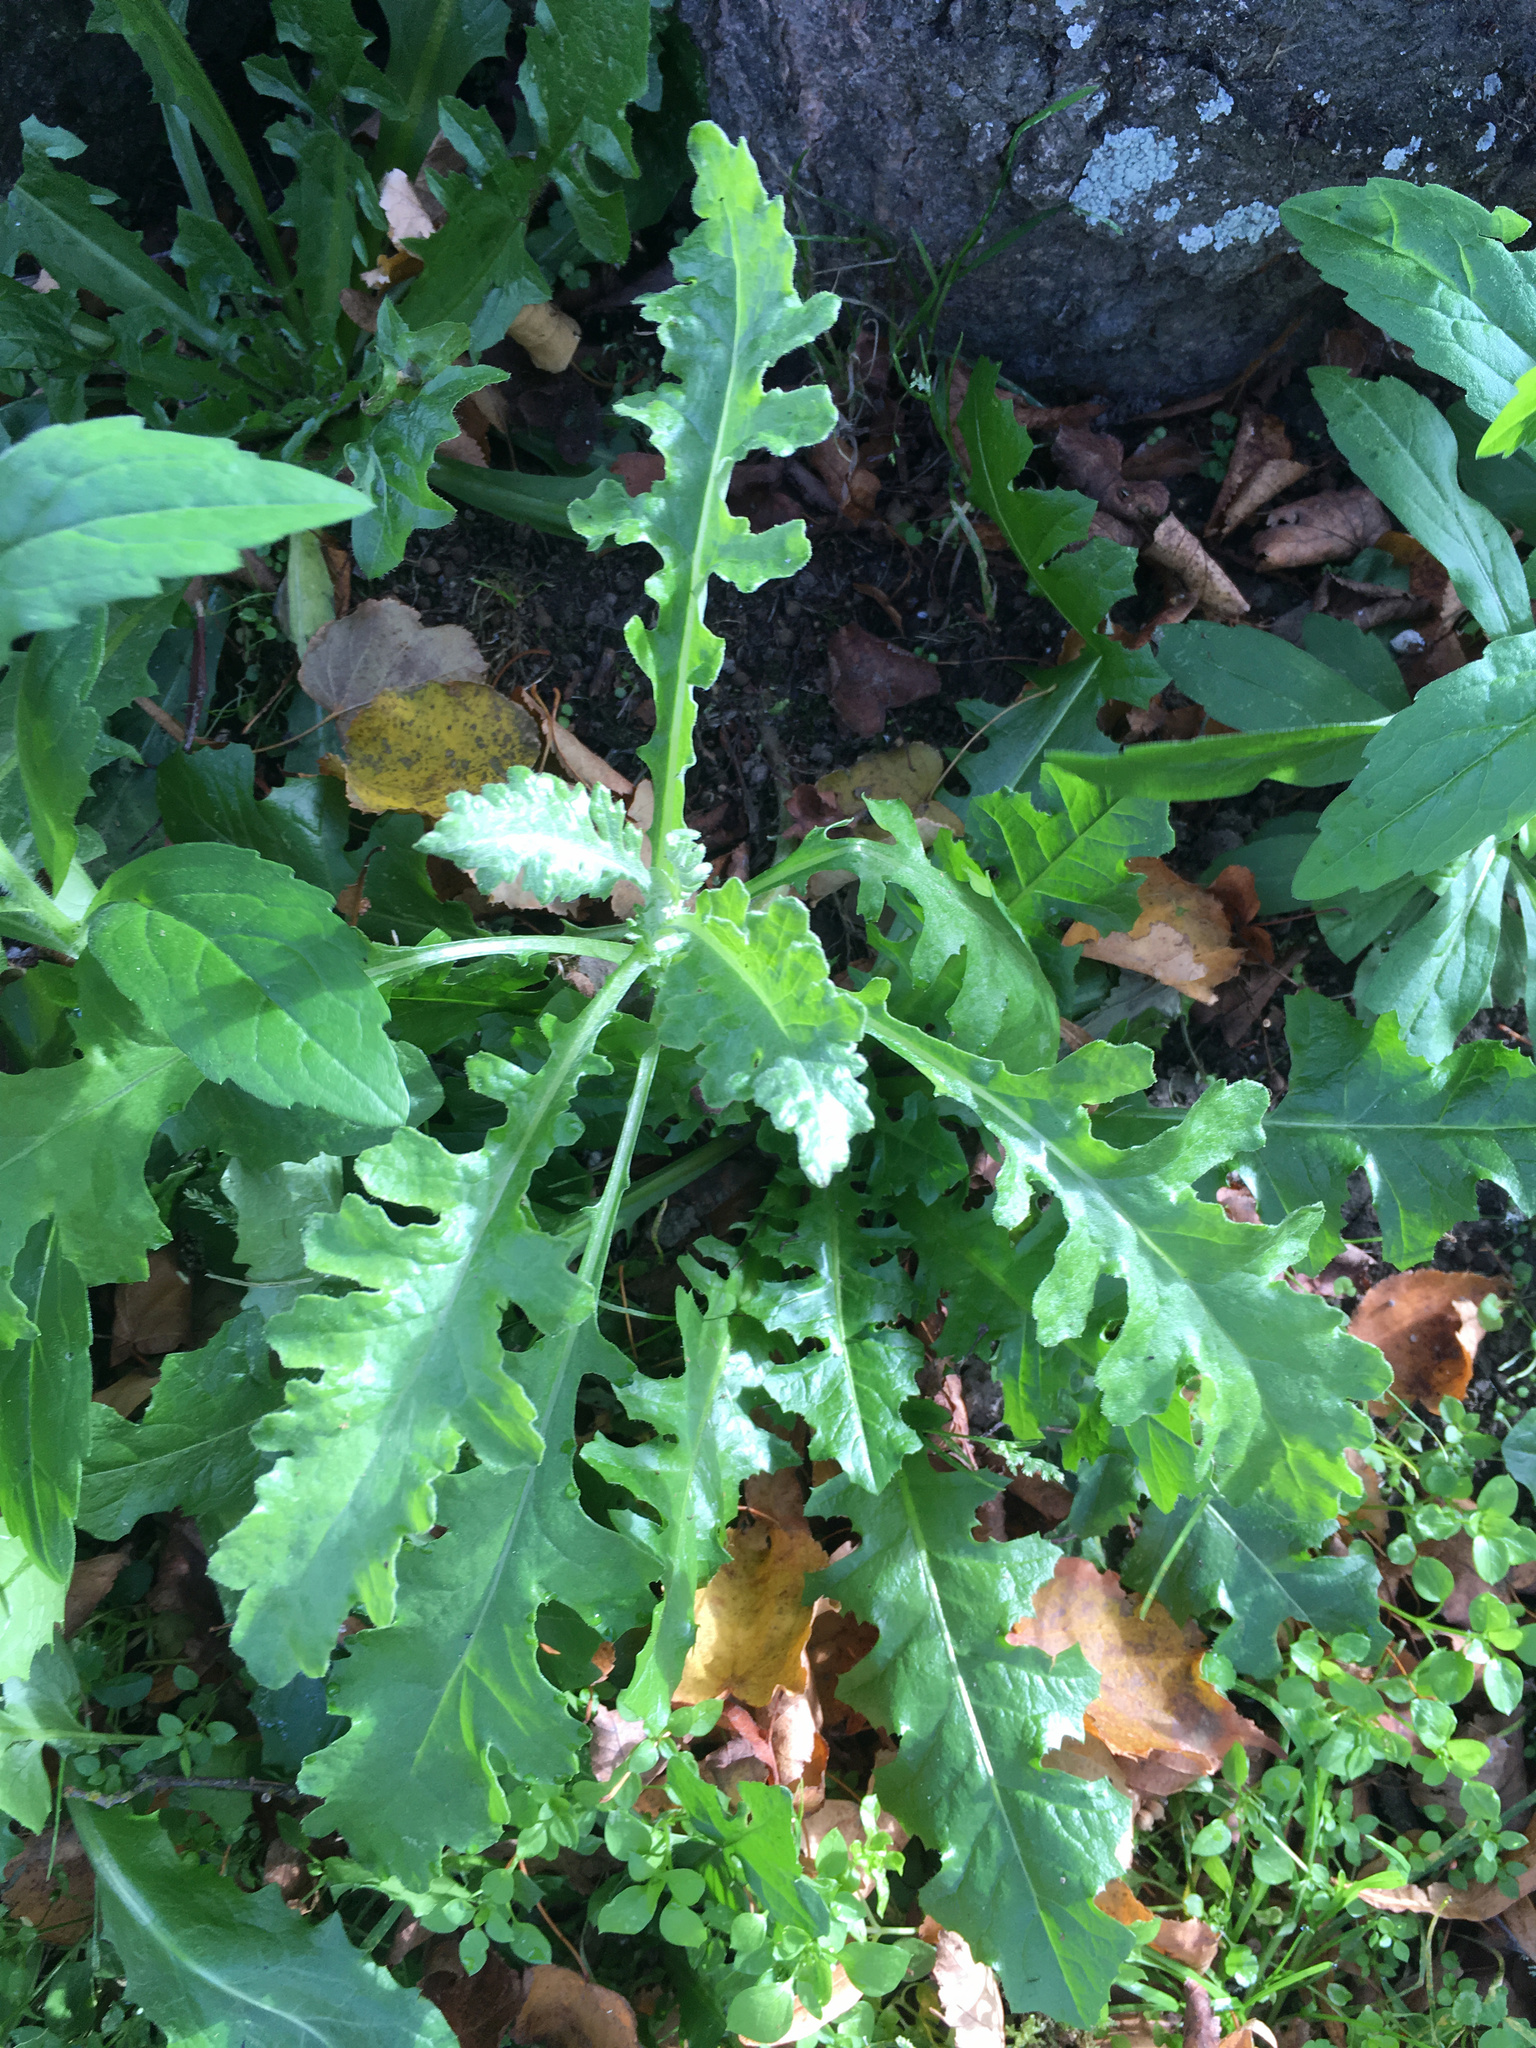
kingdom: Plantae
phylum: Tracheophyta
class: Magnoliopsida
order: Asterales
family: Asteraceae
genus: Senecio
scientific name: Senecio glomeratus
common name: Cutleaf burnweed
